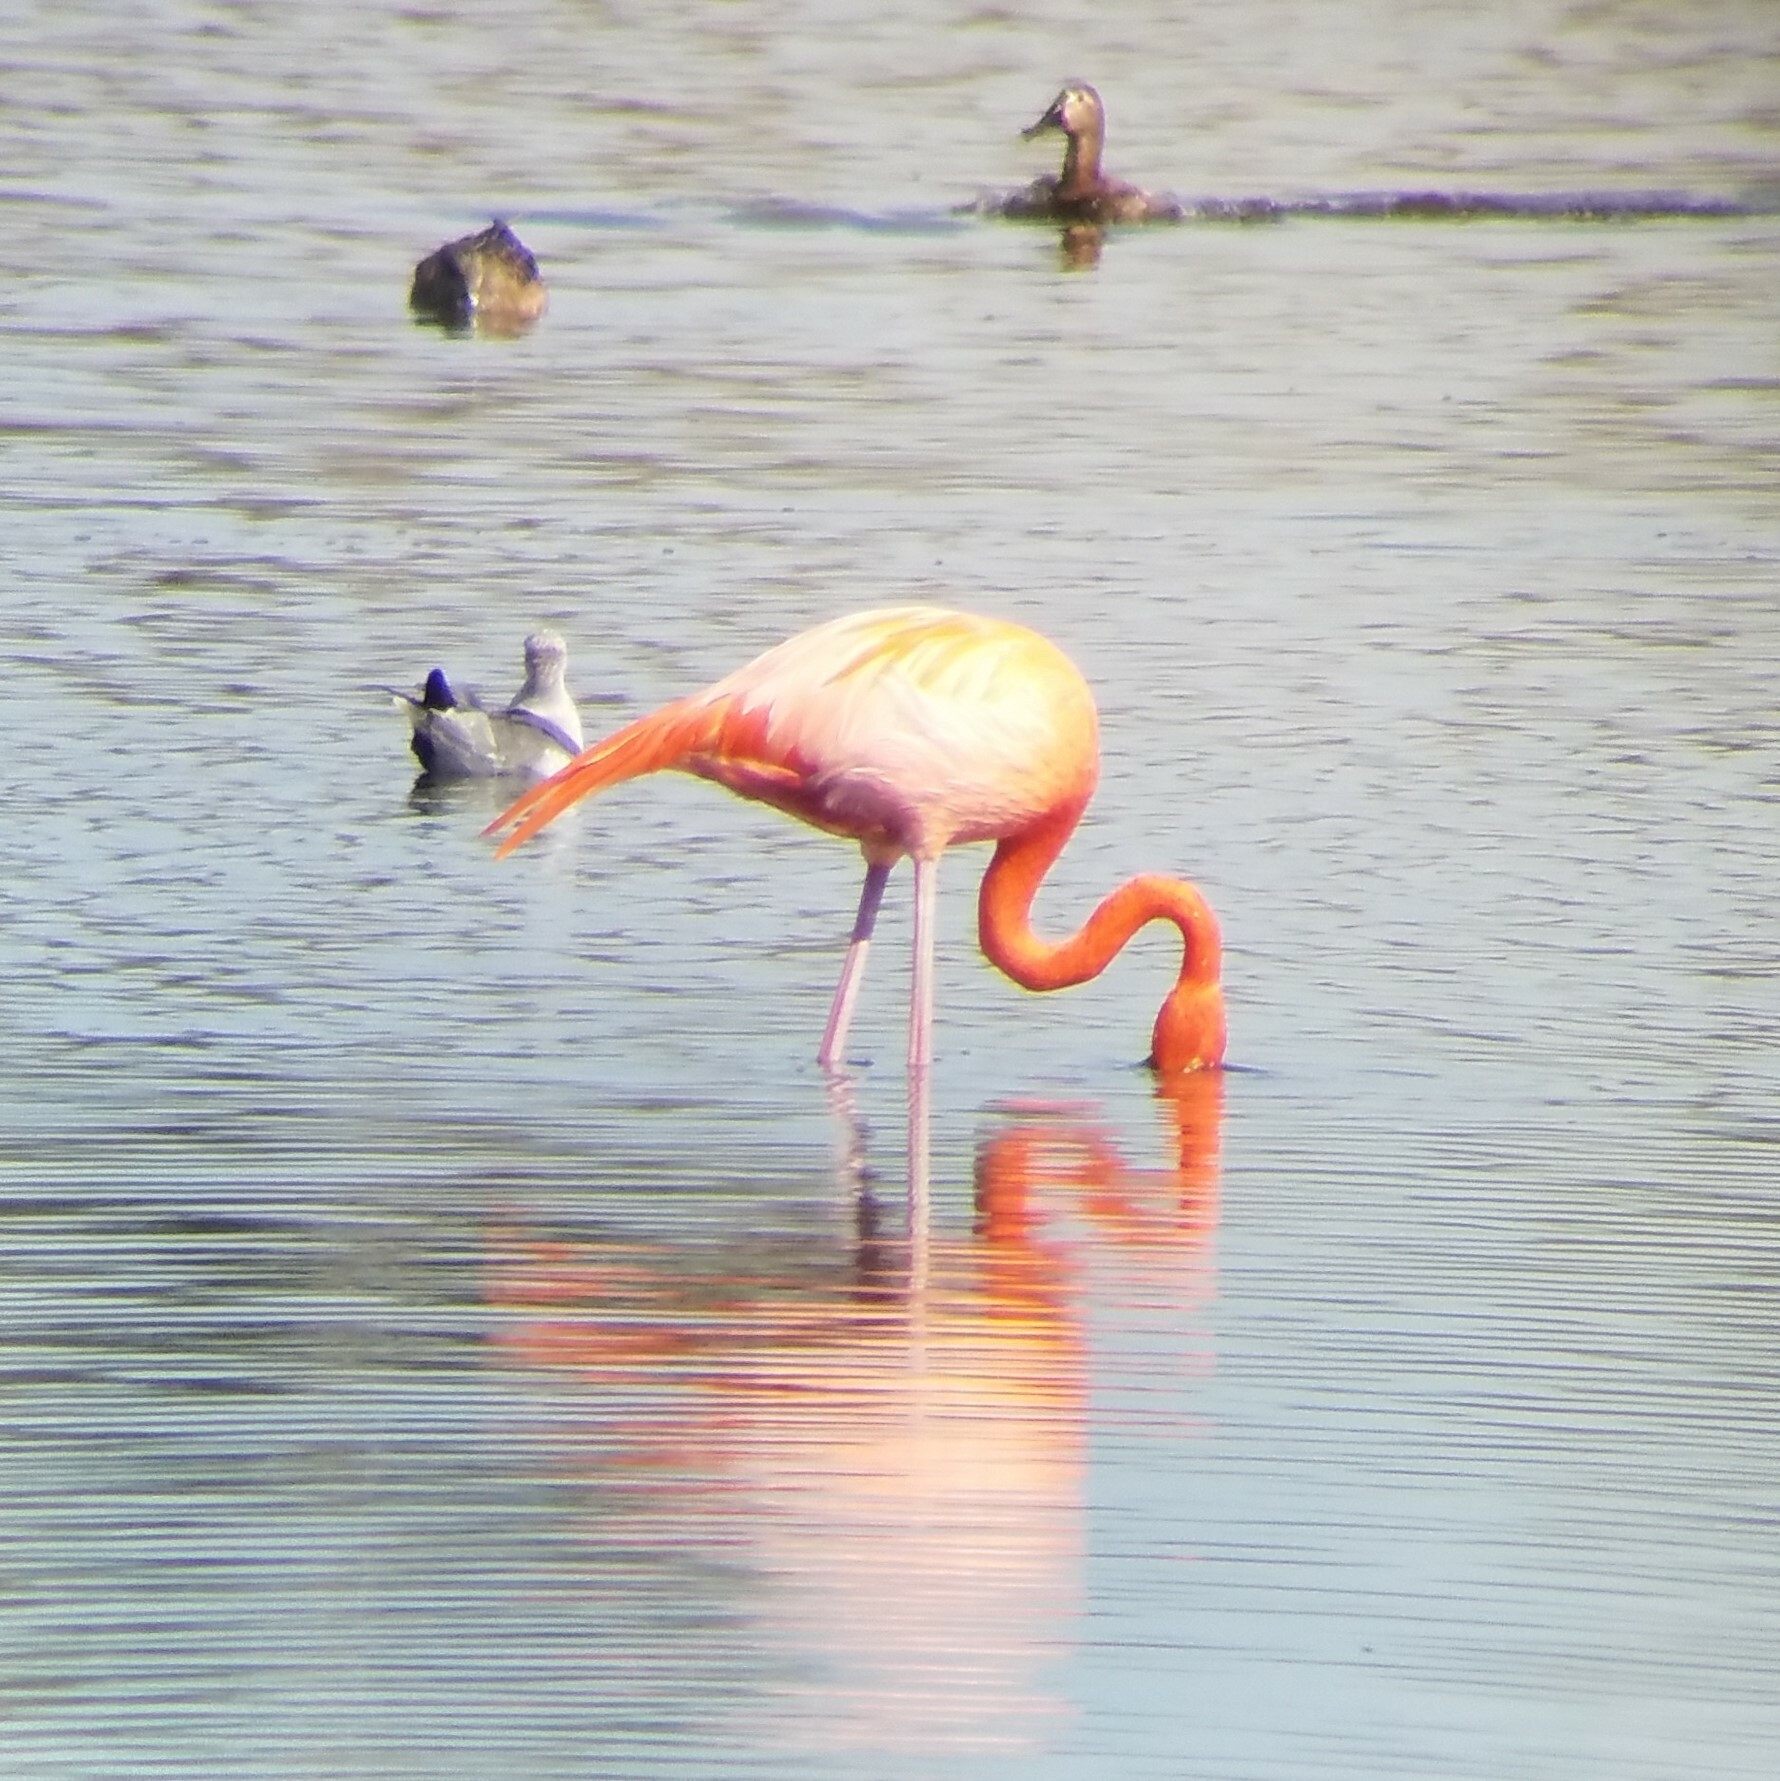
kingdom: Animalia
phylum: Chordata
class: Aves
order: Phoenicopteriformes
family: Phoenicopteridae
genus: Phoenicopterus
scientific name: Phoenicopterus ruber
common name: American flamingo
